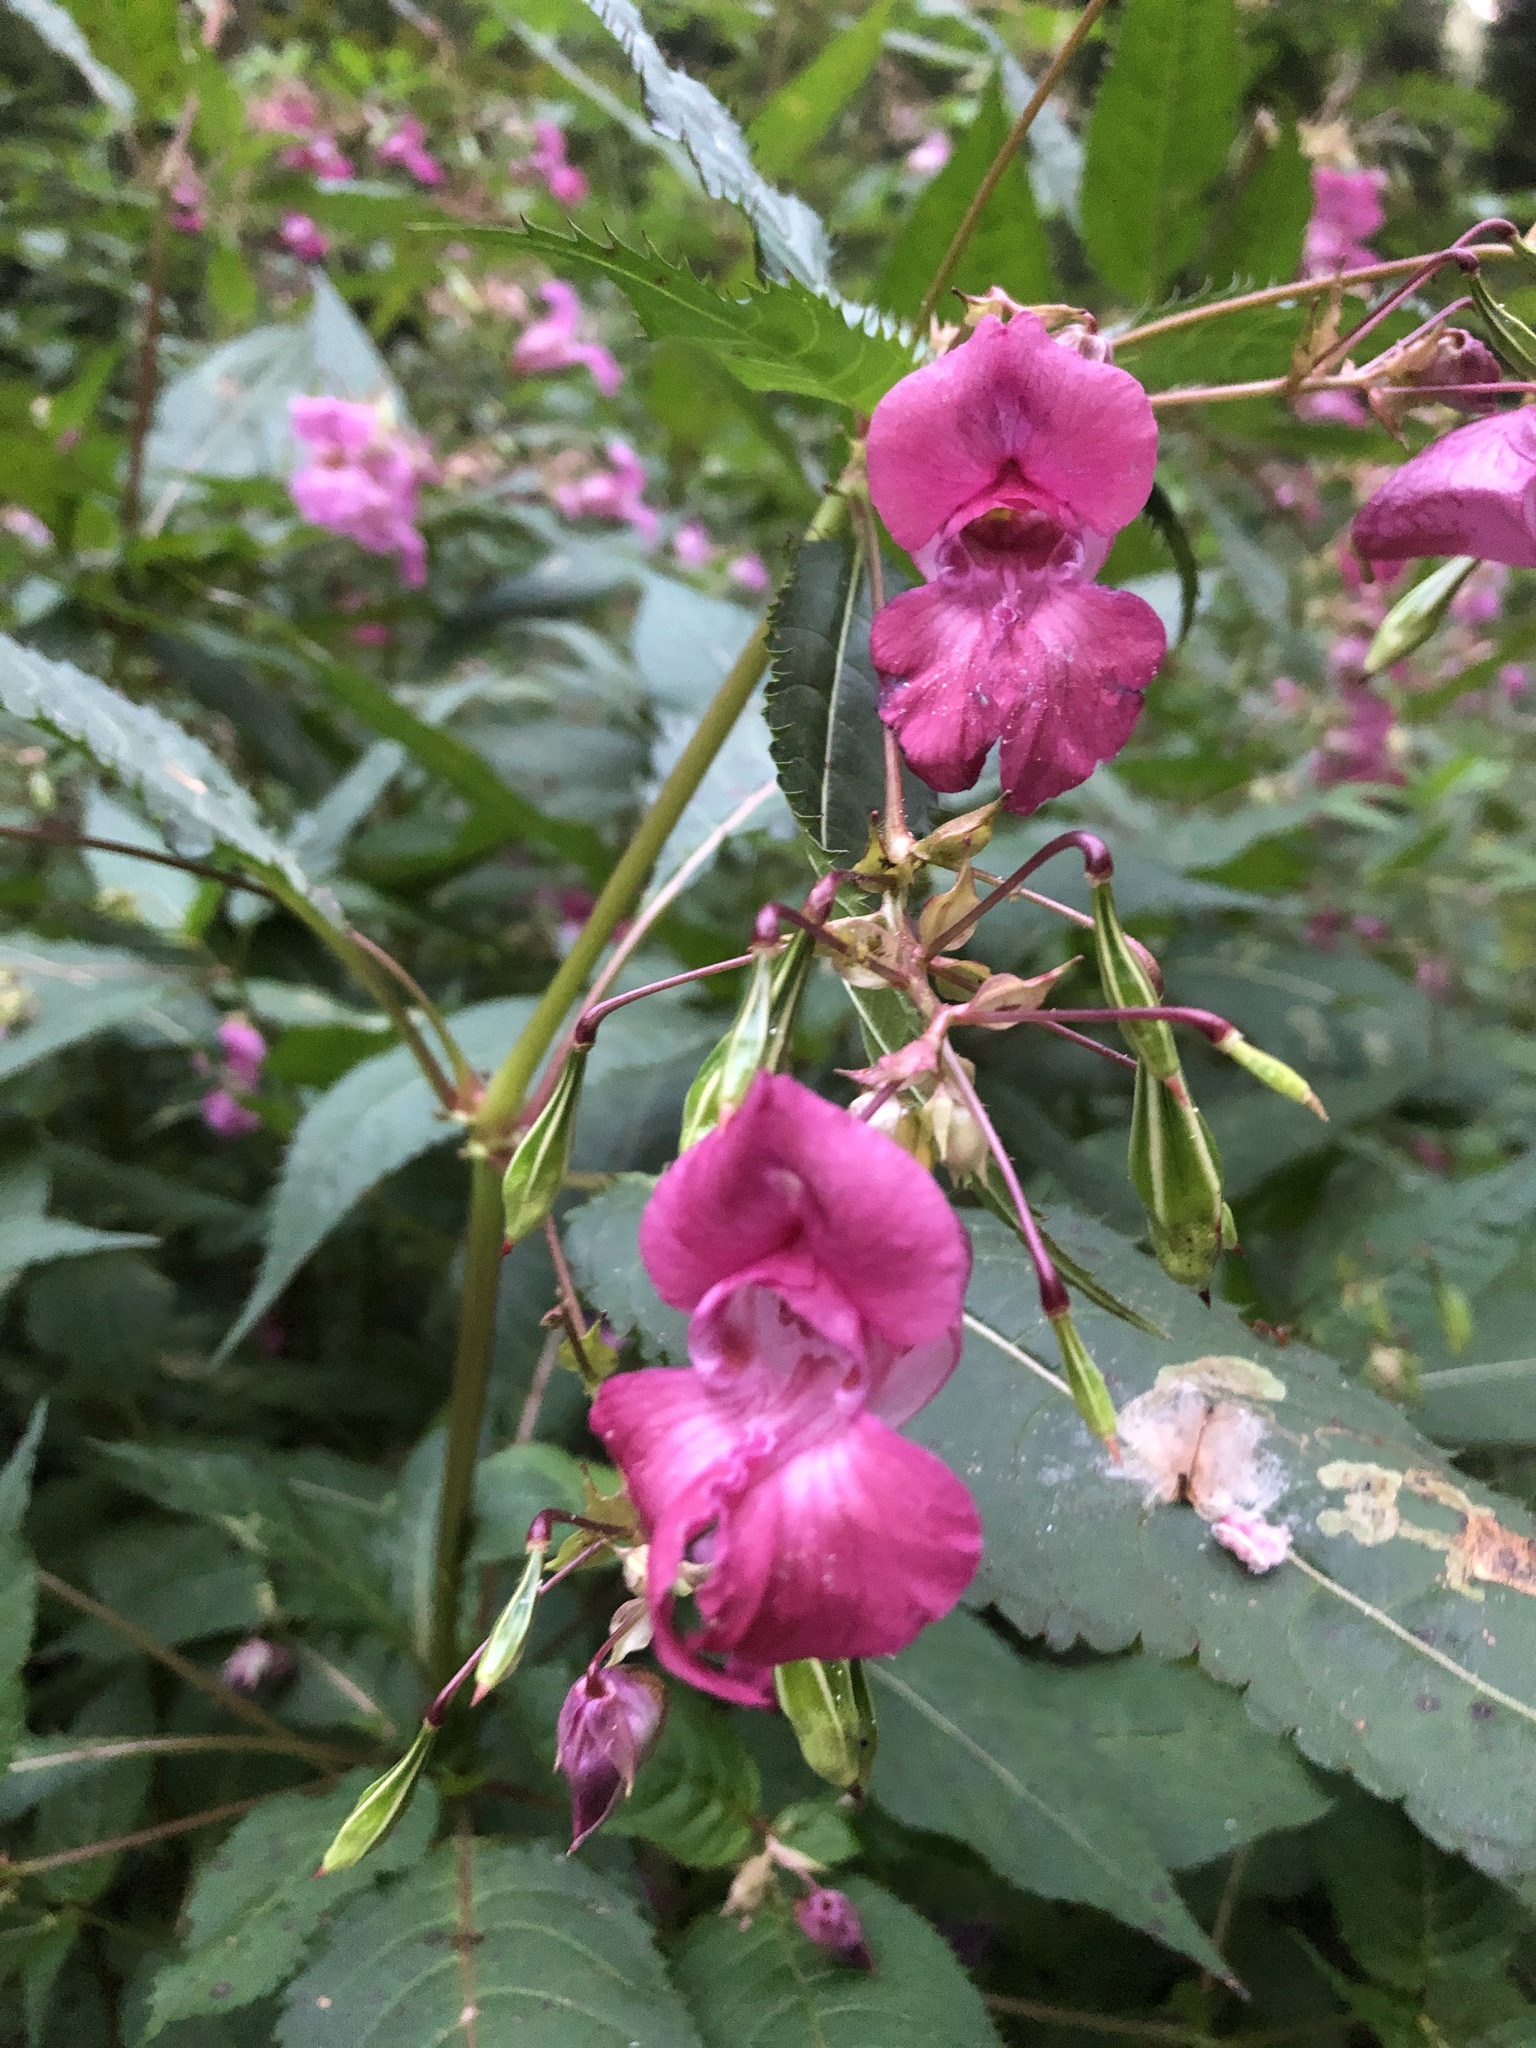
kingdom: Plantae
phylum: Tracheophyta
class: Magnoliopsida
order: Ericales
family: Balsaminaceae
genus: Impatiens
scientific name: Impatiens glandulifera
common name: Himalayan balsam
